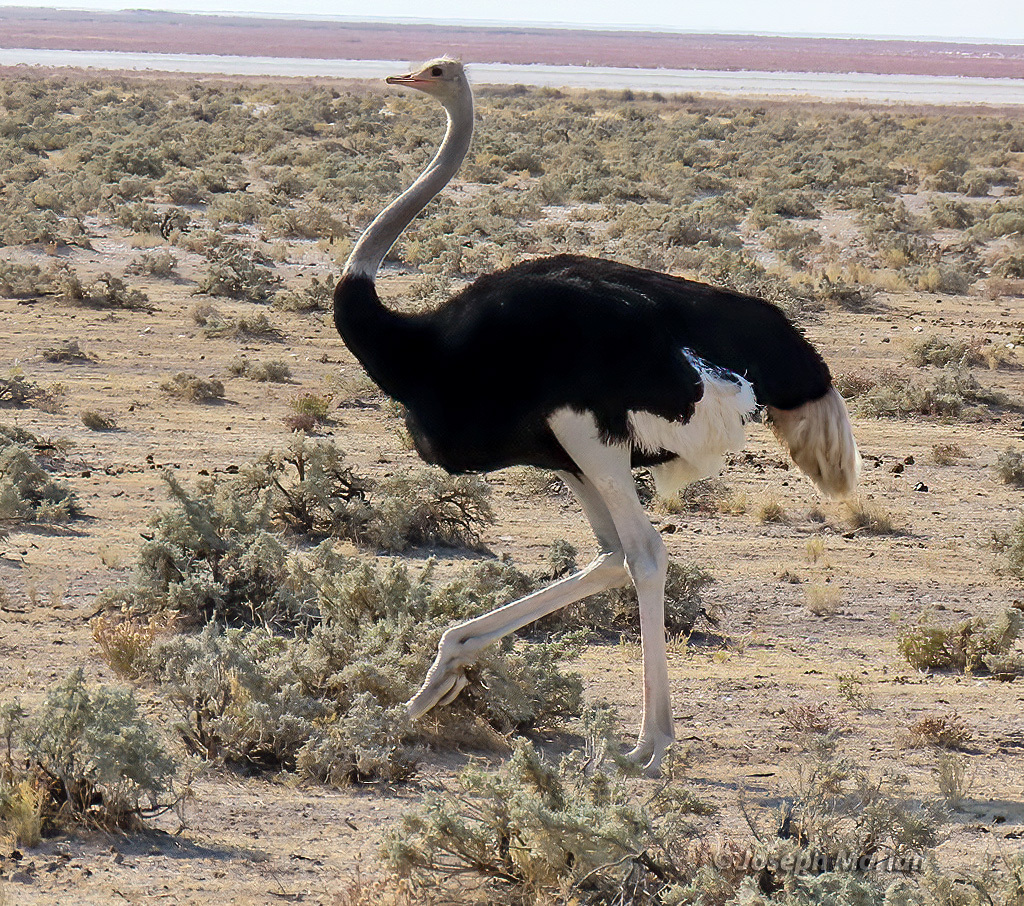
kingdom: Animalia
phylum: Chordata
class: Aves
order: Struthioniformes
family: Struthionidae
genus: Struthio
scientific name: Struthio camelus
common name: Common ostrich
